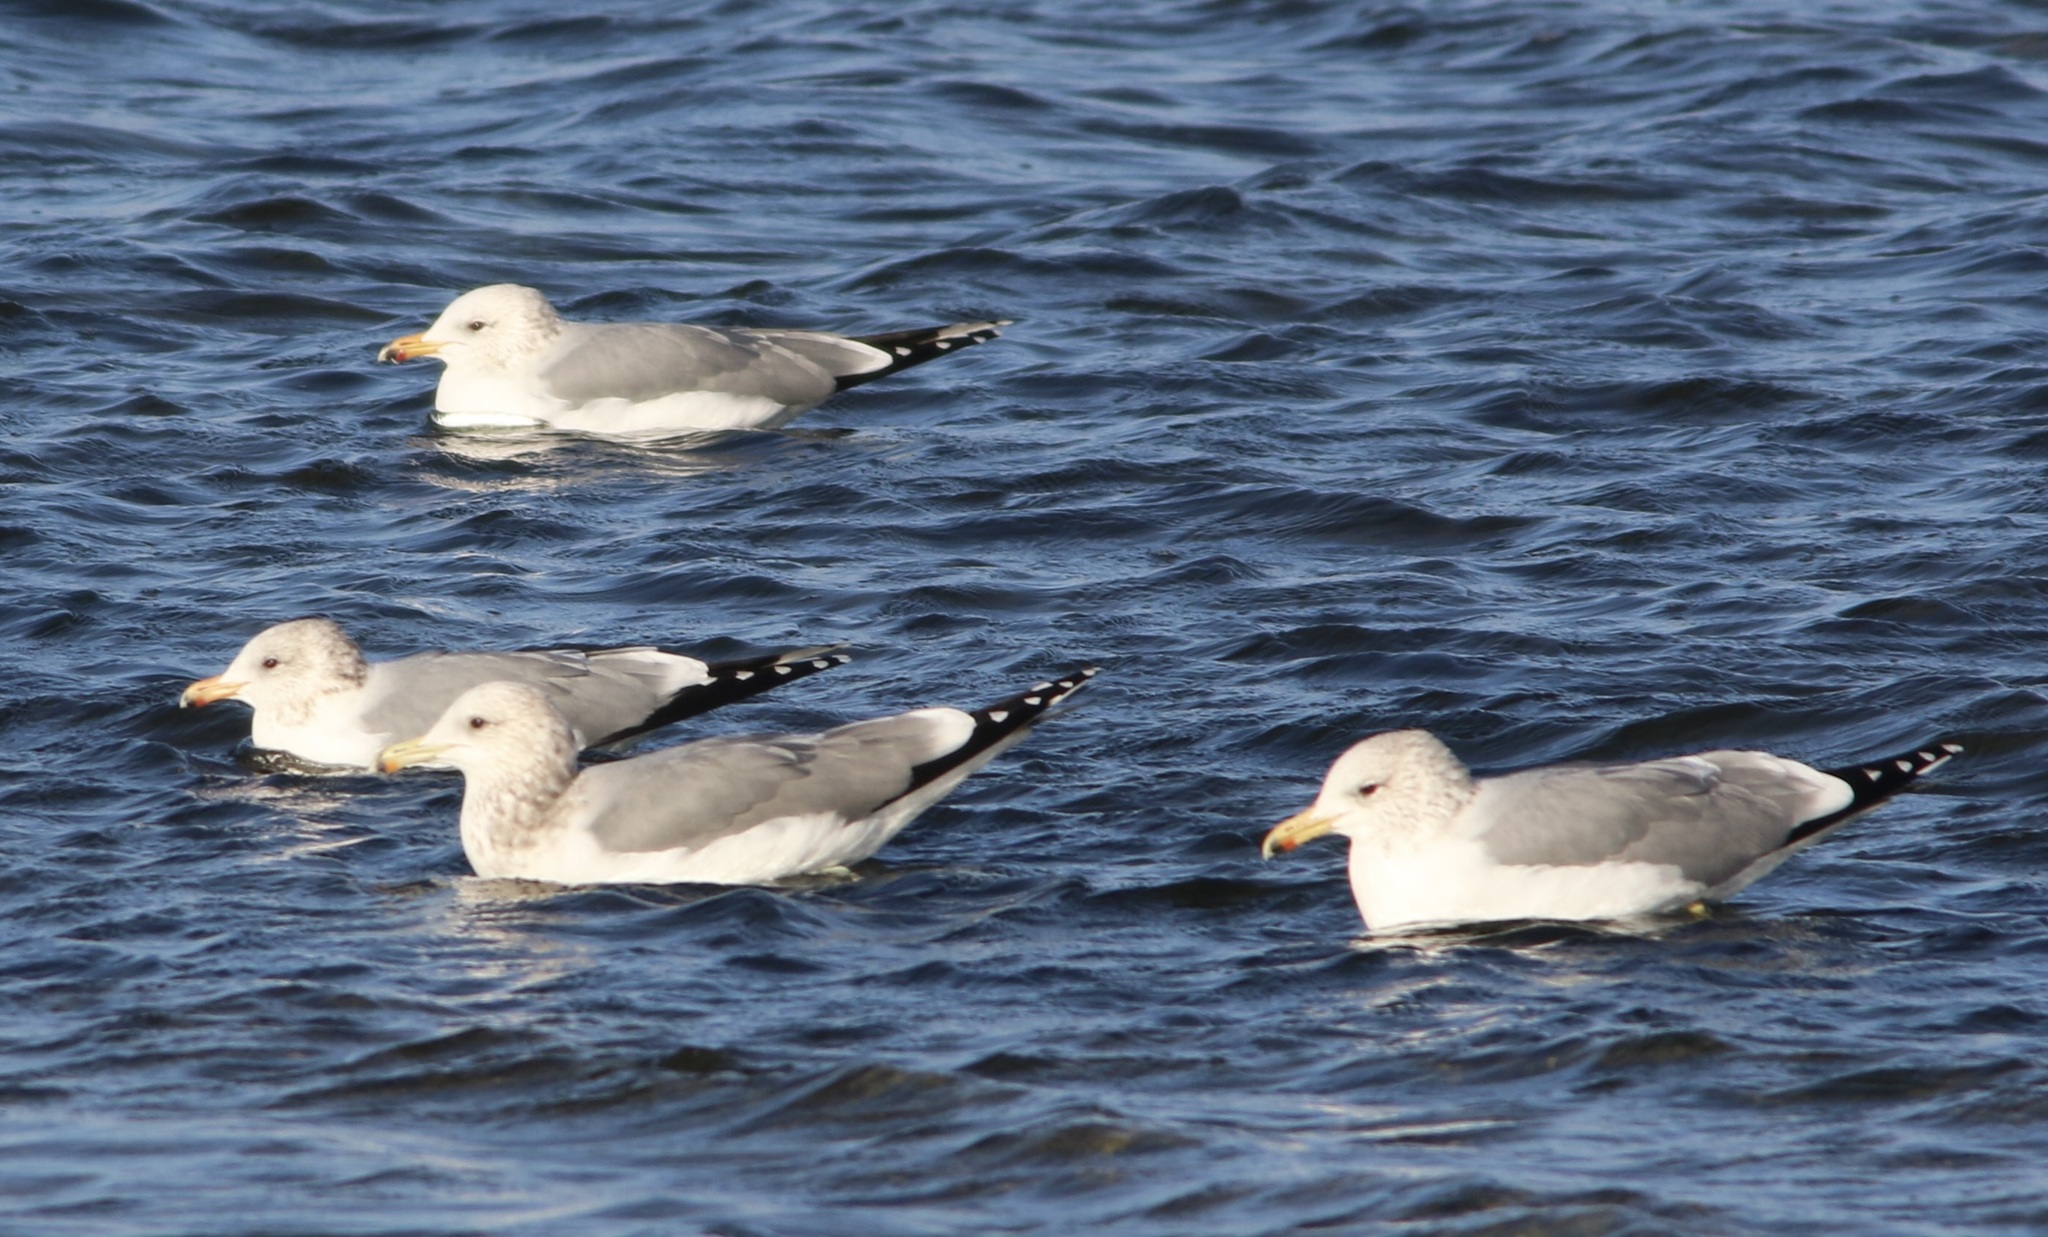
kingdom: Animalia
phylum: Chordata
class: Aves
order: Charadriiformes
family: Laridae
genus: Larus
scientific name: Larus californicus
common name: California gull
